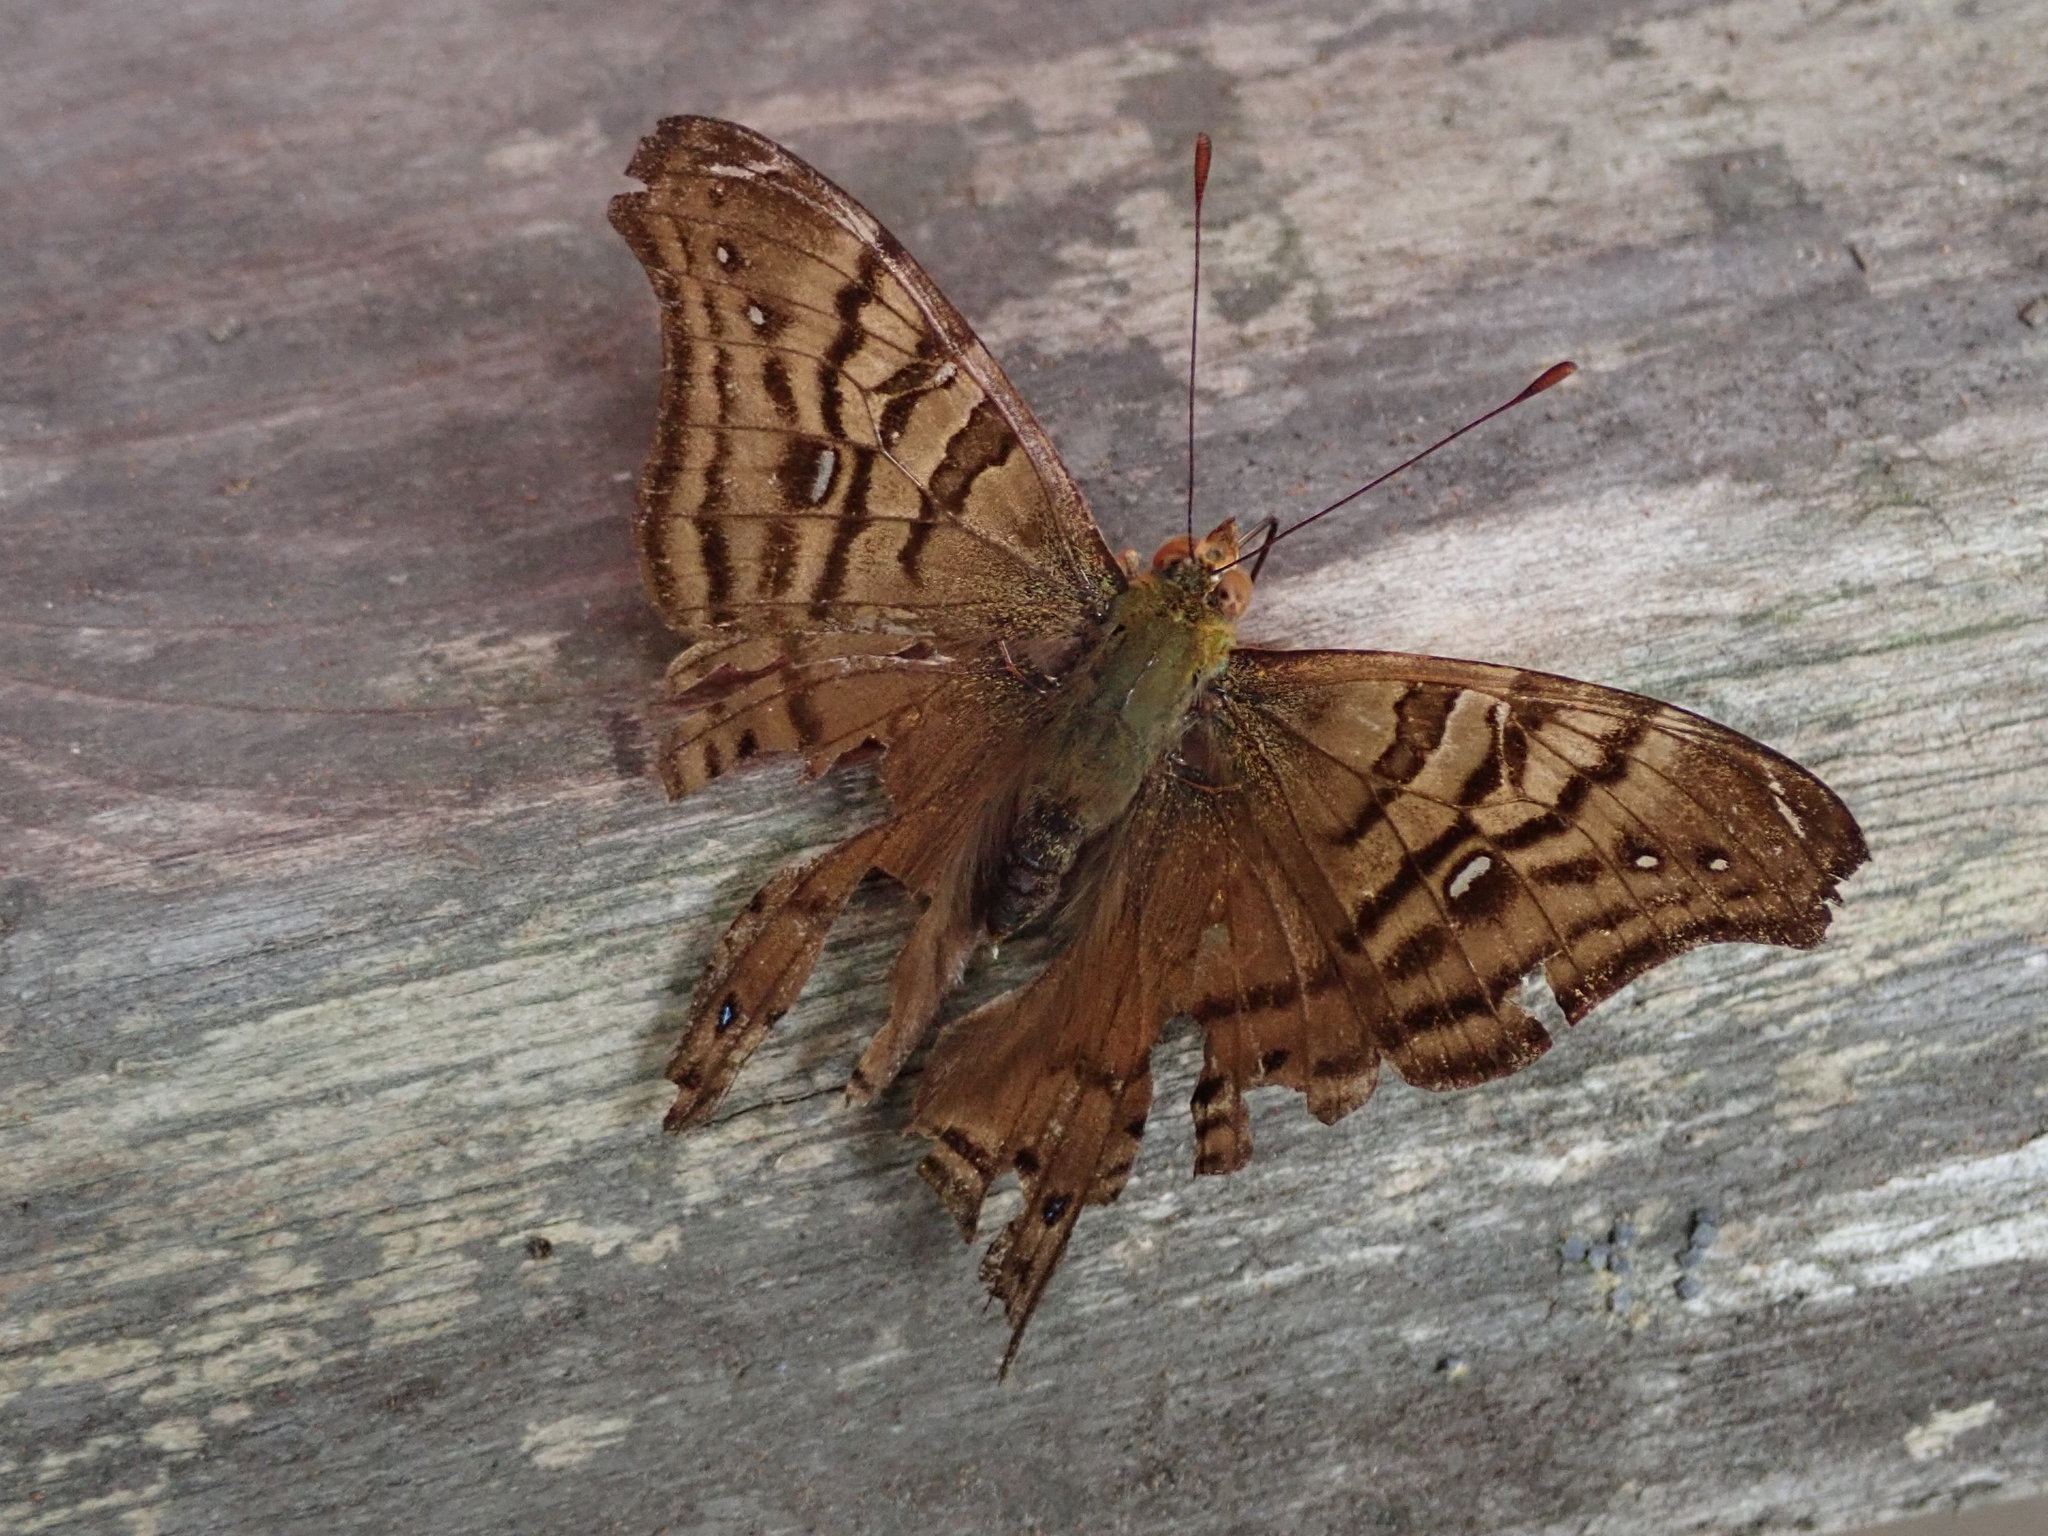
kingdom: Animalia
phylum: Arthropoda
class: Insecta
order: Lepidoptera
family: Nymphalidae
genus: Hypanartia
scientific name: Hypanartia dione
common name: Banded mapwing
